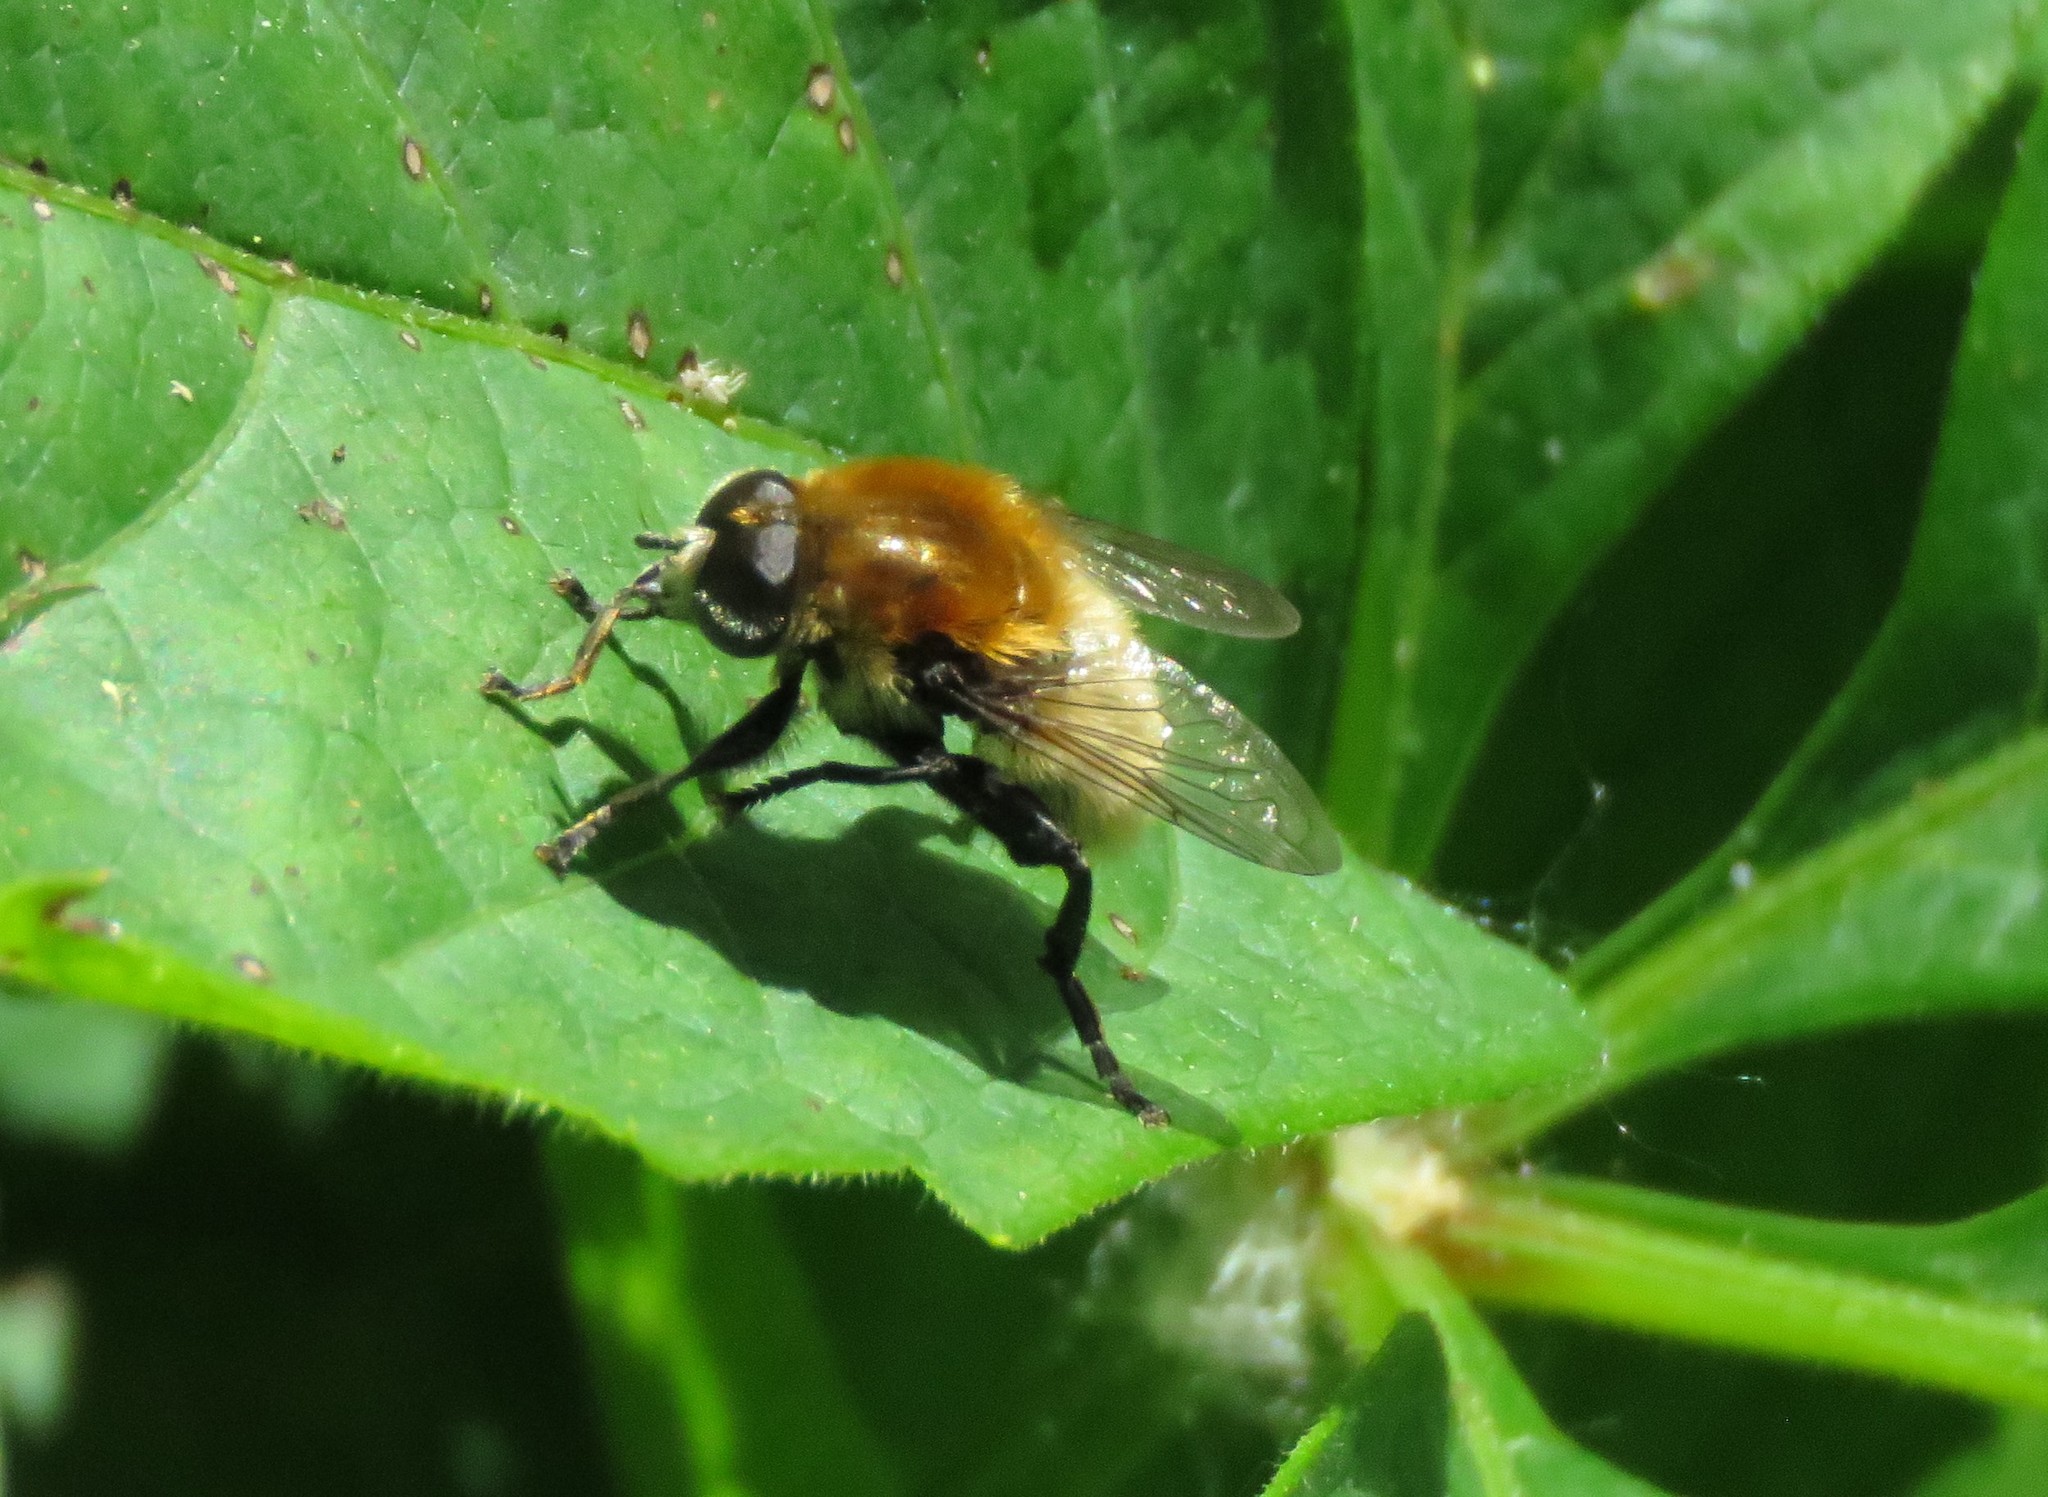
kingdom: Animalia
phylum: Arthropoda
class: Insecta
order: Diptera
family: Syrphidae
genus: Merodon
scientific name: Merodon equestris
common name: Greater bulb-fly
